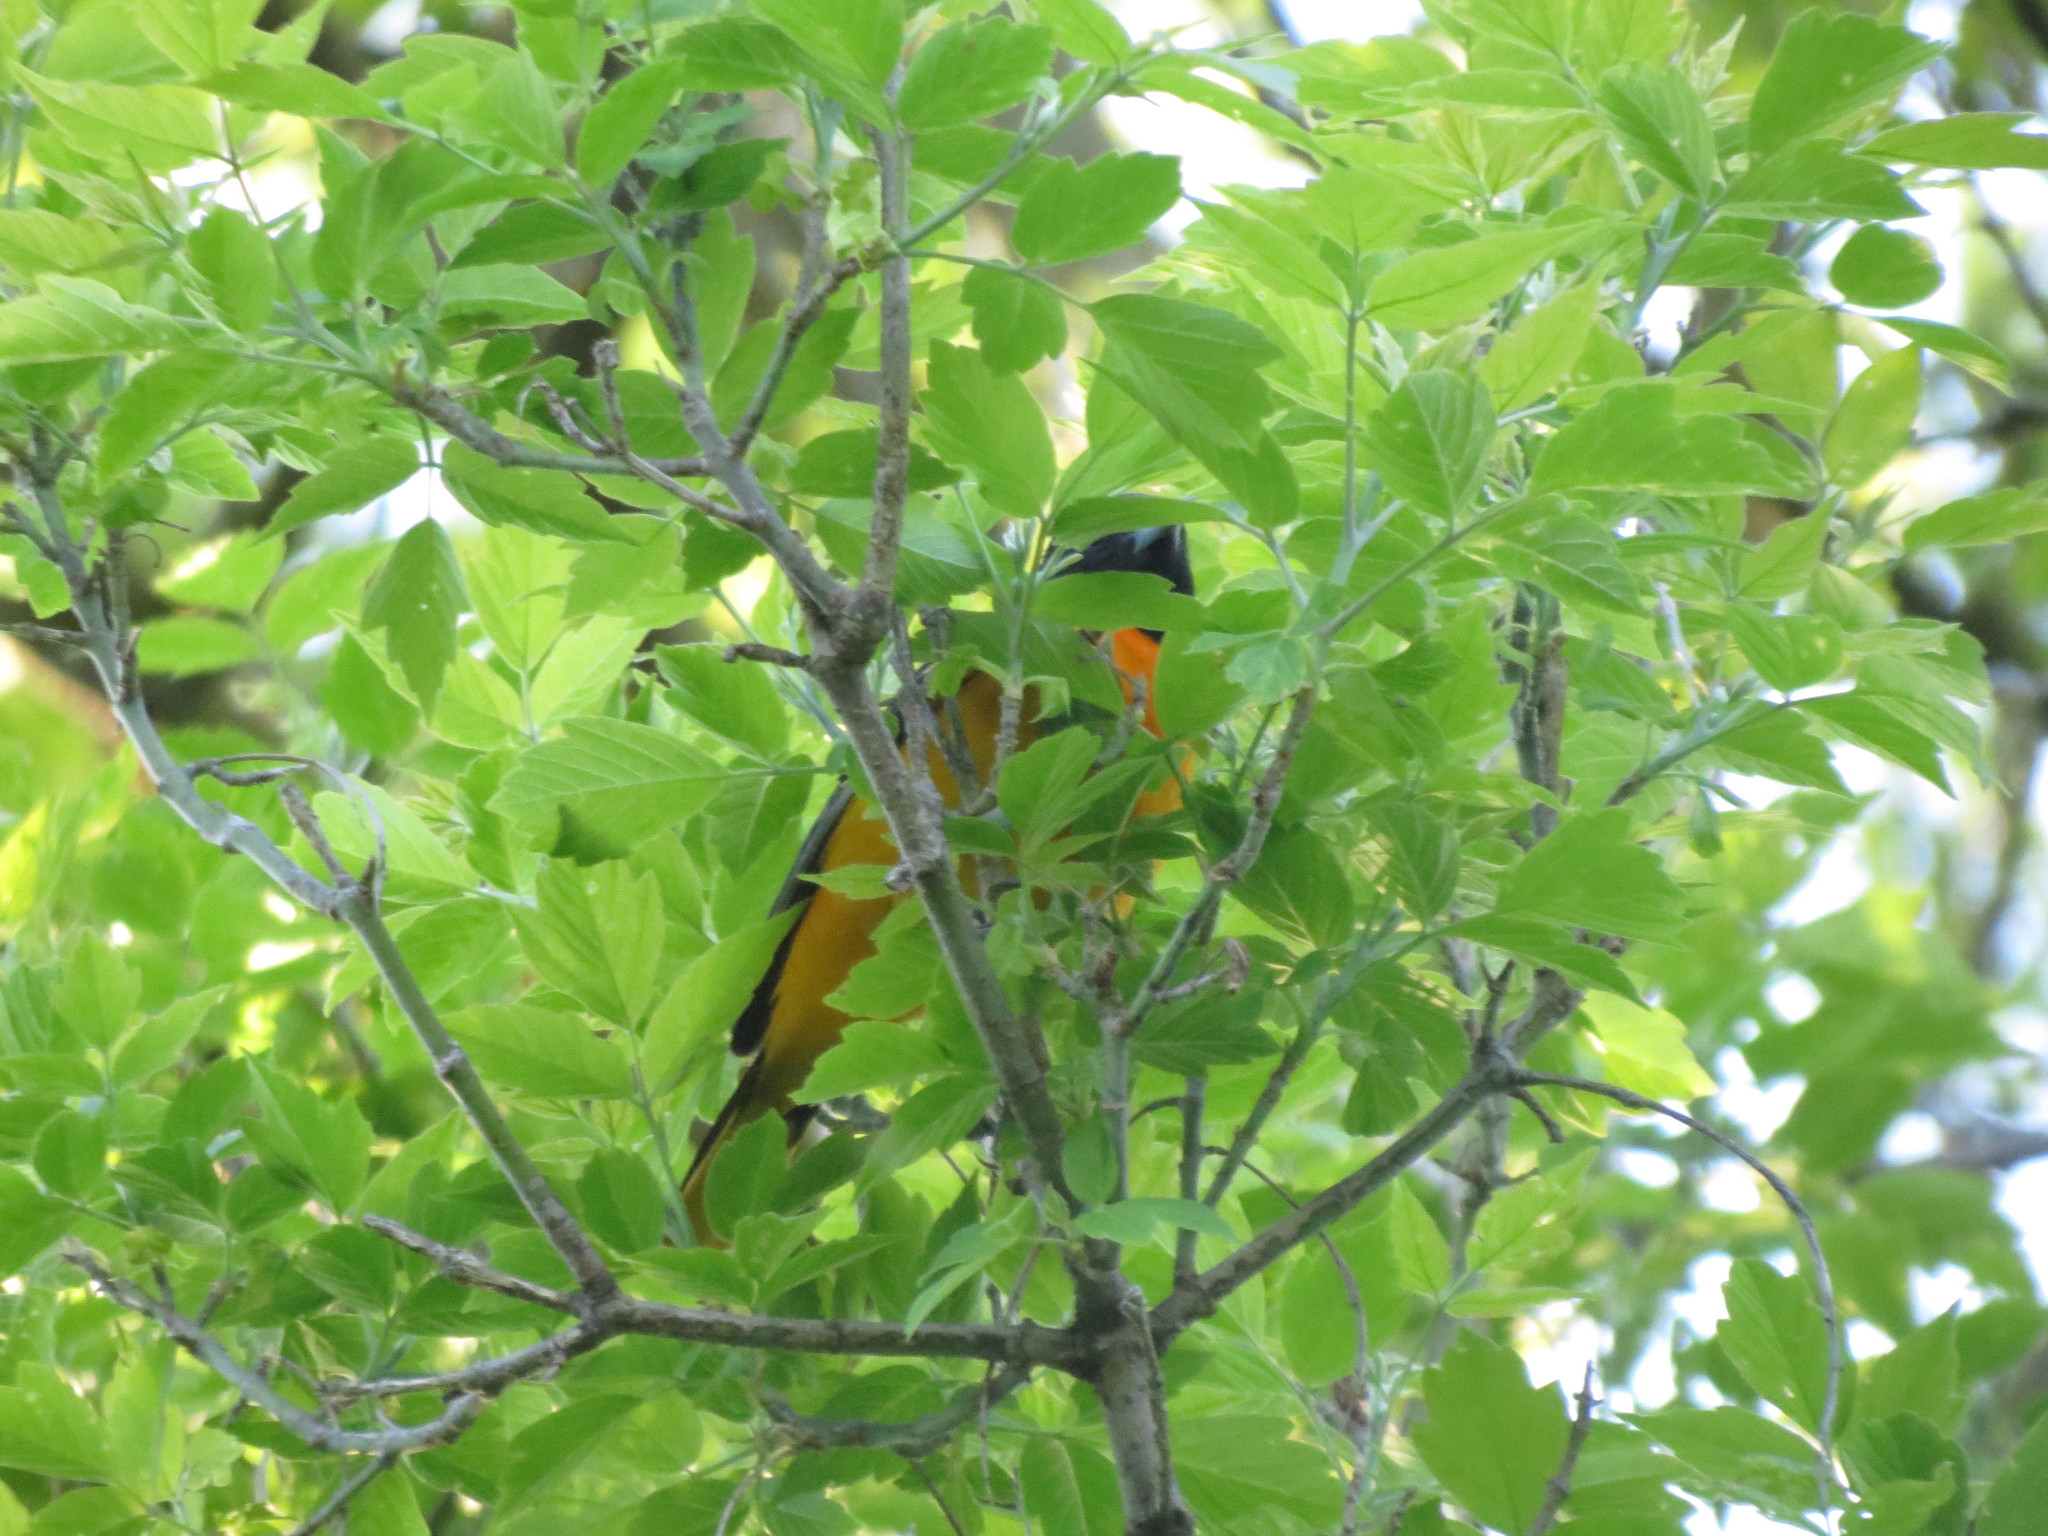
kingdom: Animalia
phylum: Chordata
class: Aves
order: Passeriformes
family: Icteridae
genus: Icterus
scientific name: Icterus galbula
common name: Baltimore oriole
